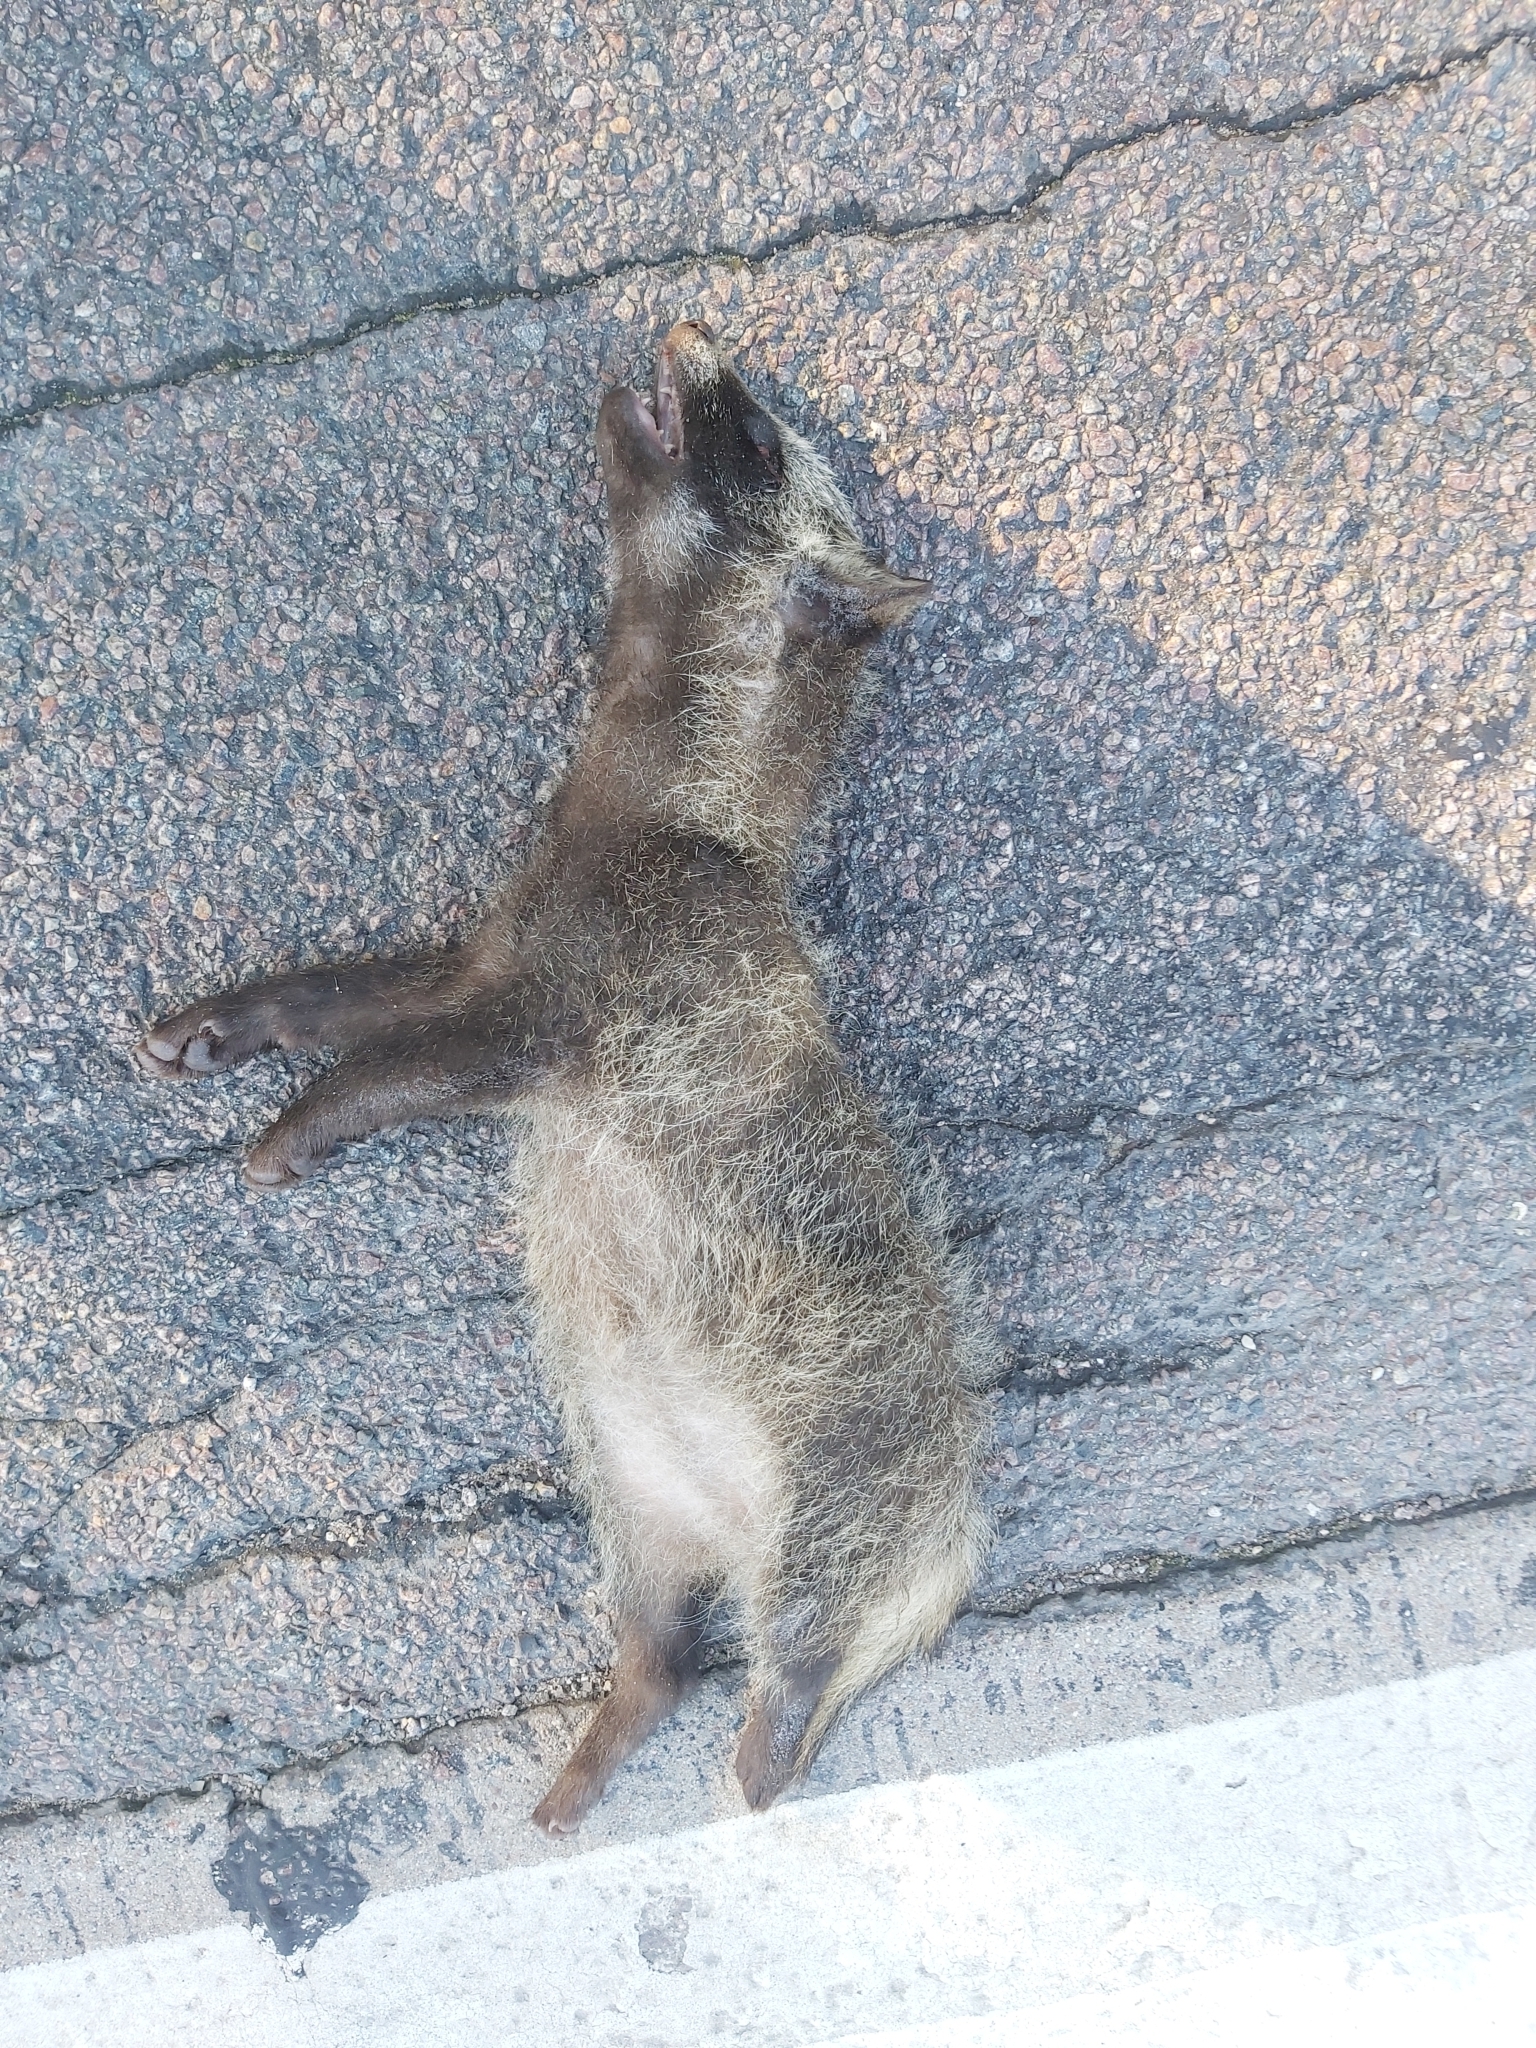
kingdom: Animalia
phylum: Chordata
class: Mammalia
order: Carnivora
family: Canidae
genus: Nyctereutes
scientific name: Nyctereutes procyonoides
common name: Raccoon dog
